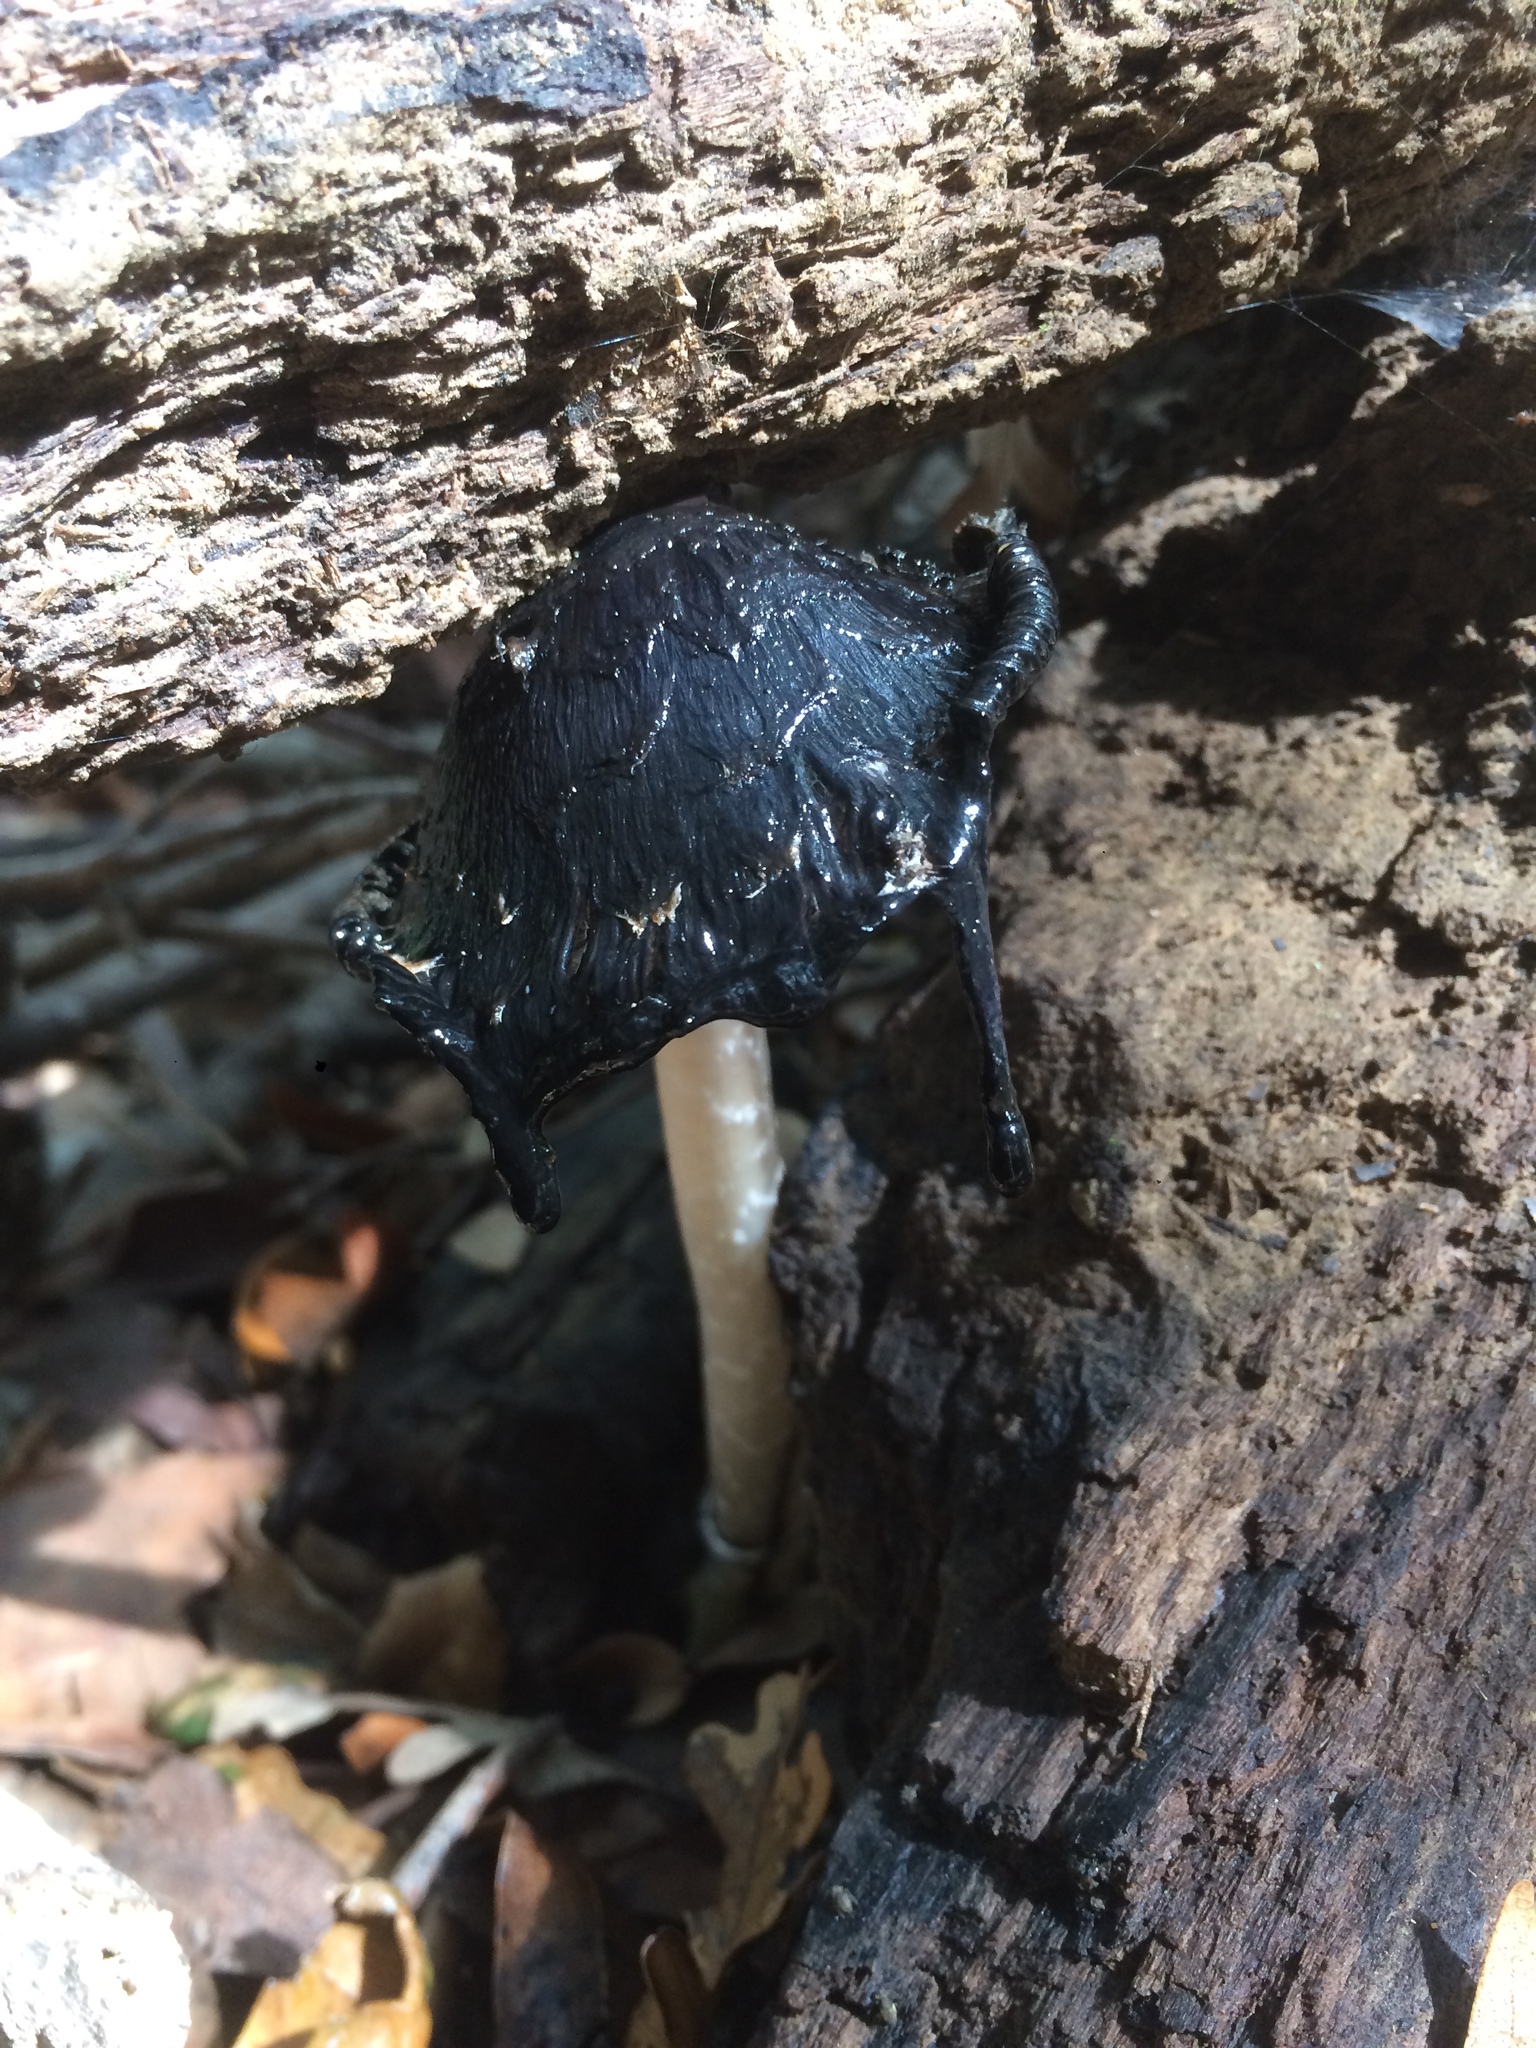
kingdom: Fungi
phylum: Basidiomycota
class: Agaricomycetes
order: Agaricales
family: Agaricaceae
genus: Coprinus
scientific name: Coprinus comatus
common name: Lawyer's wig
